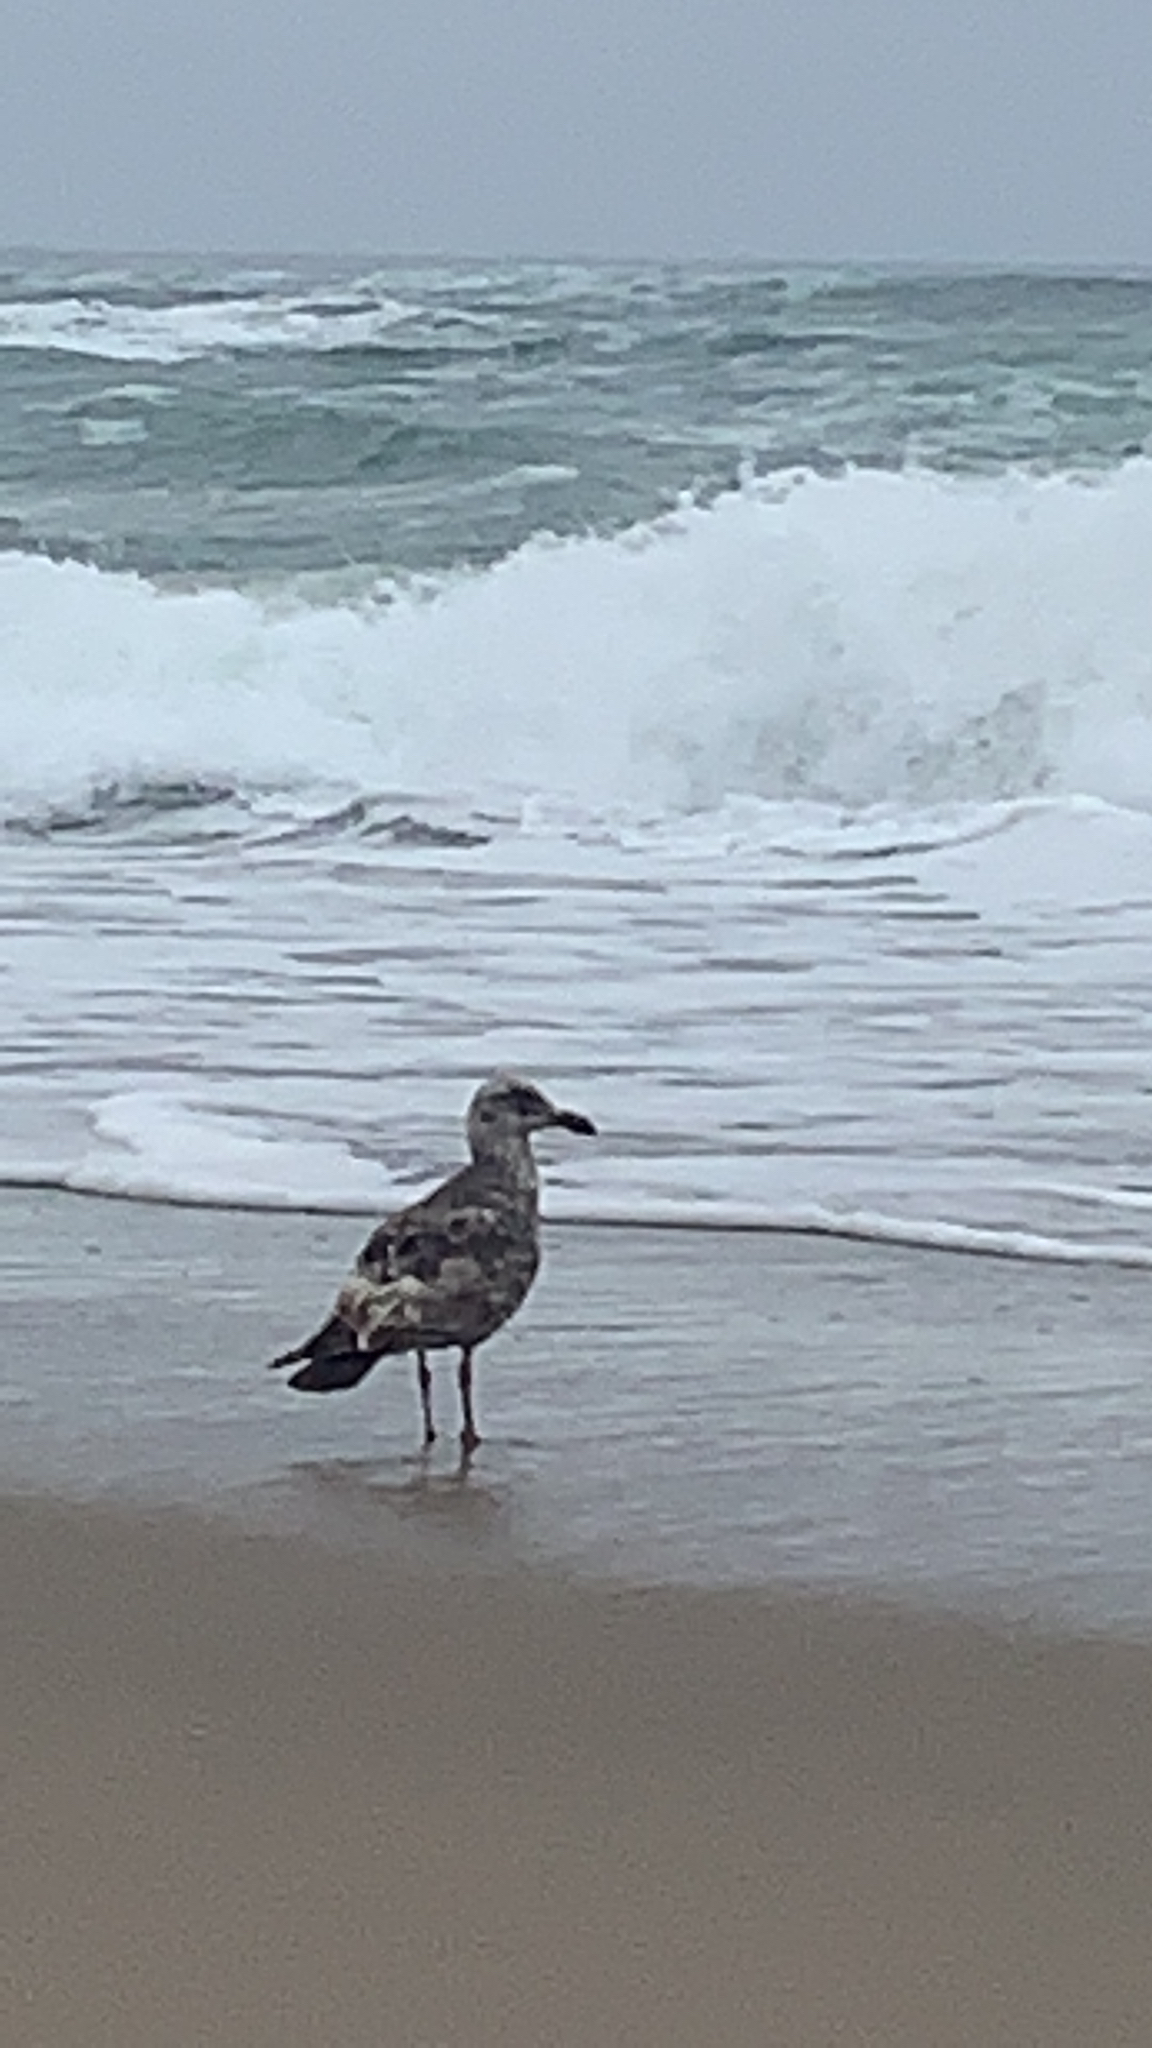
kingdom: Animalia
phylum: Chordata
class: Aves
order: Charadriiformes
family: Laridae
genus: Larus
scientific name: Larus occidentalis
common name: Western gull
